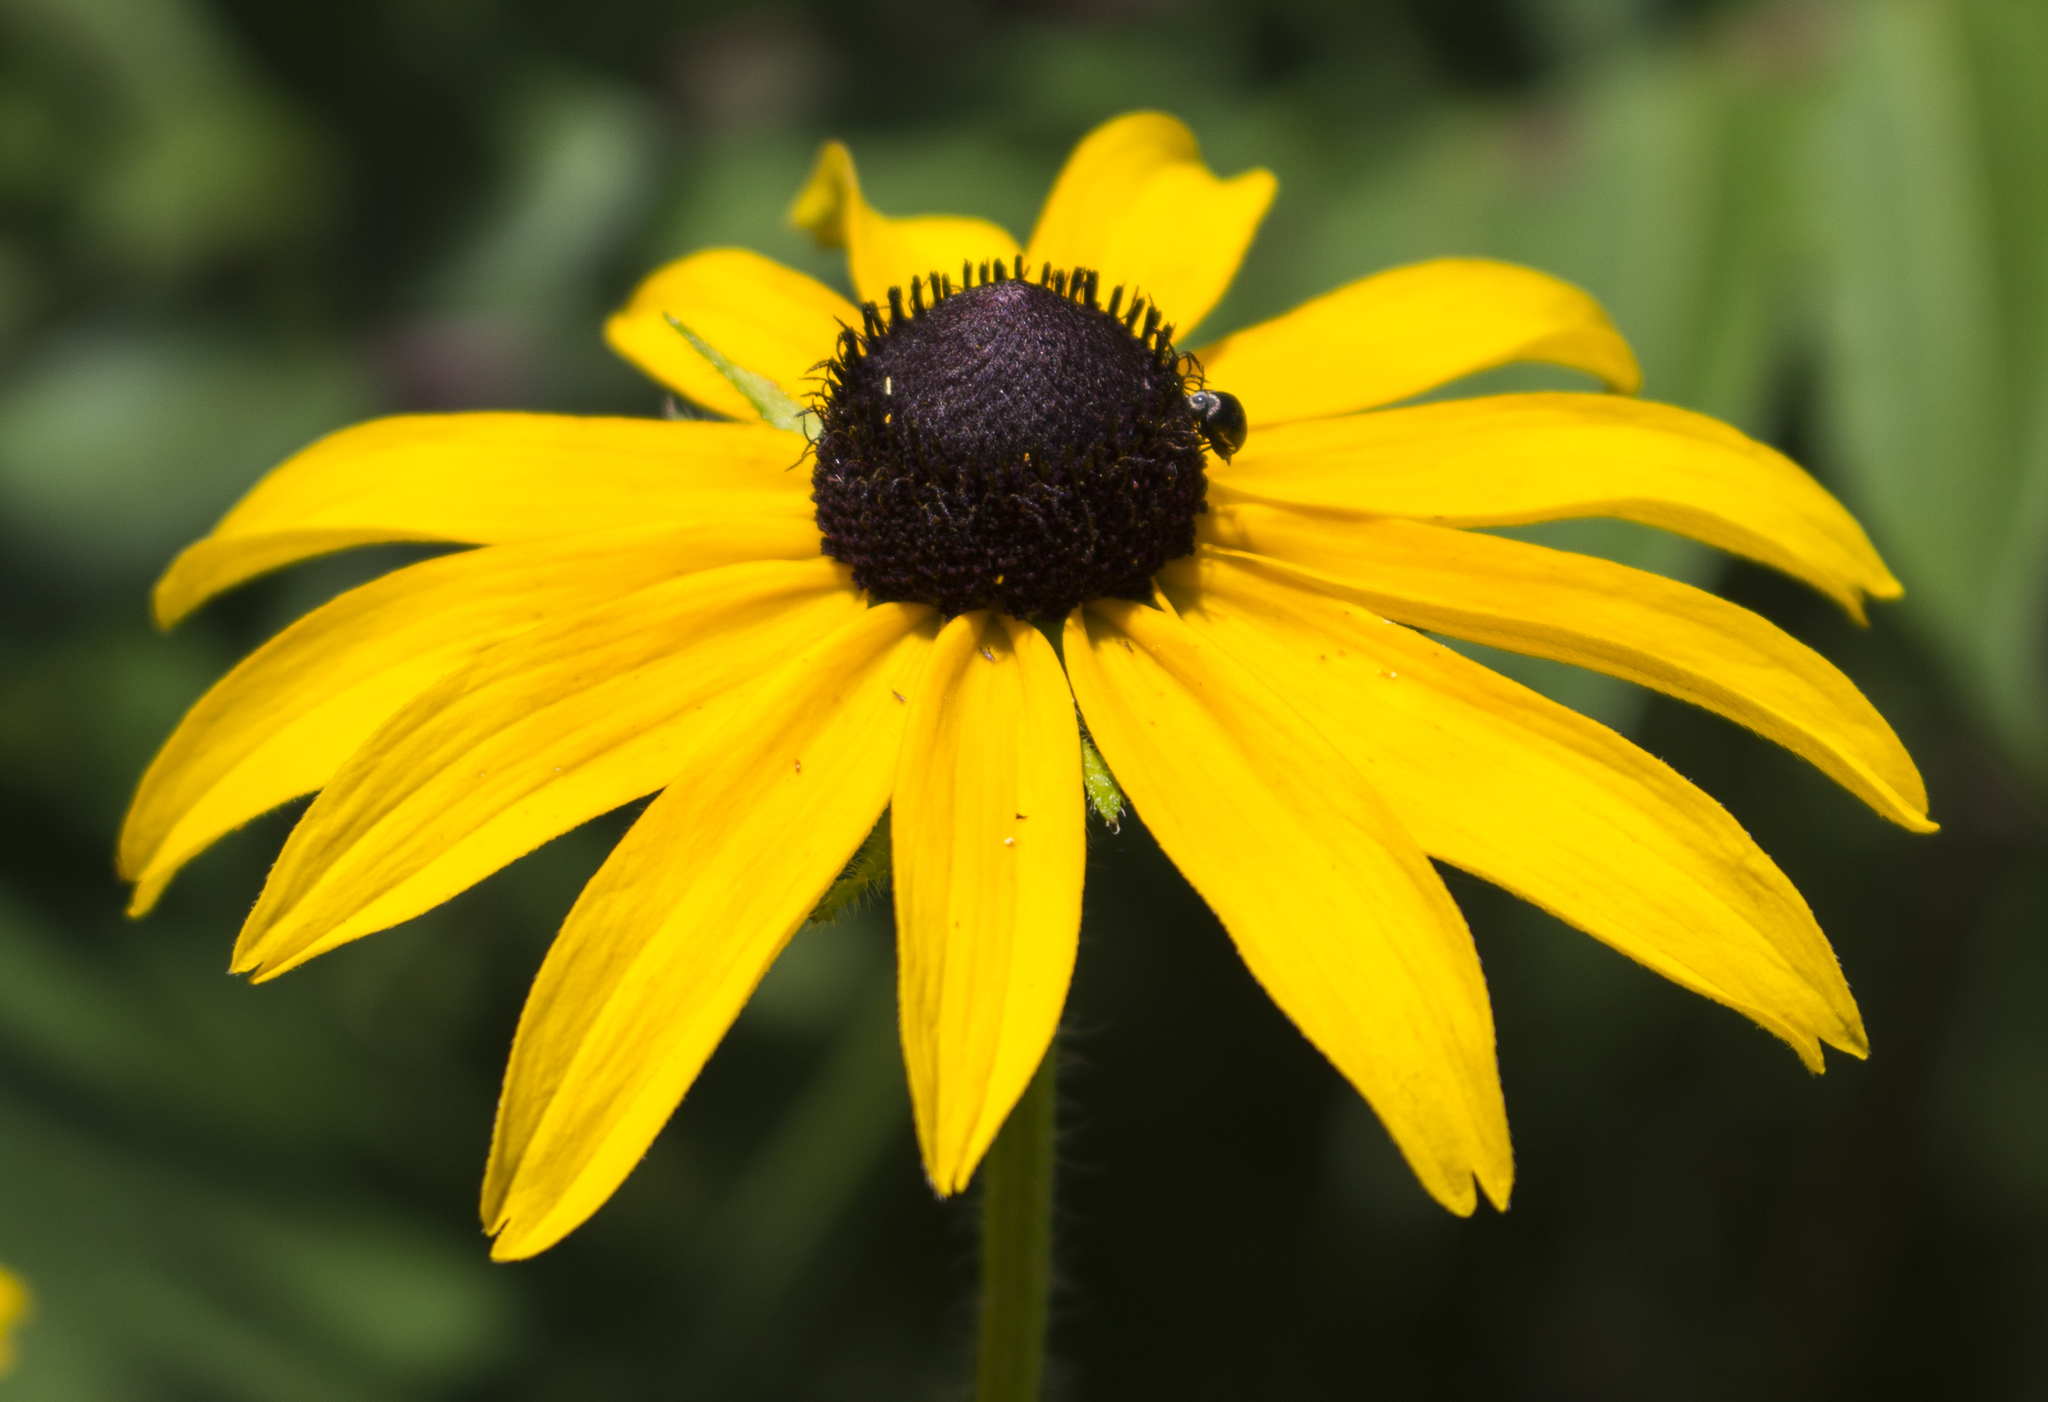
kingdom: Plantae
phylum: Tracheophyta
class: Magnoliopsida
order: Asterales
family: Asteraceae
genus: Rudbeckia
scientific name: Rudbeckia hirta
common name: Black-eyed-susan
